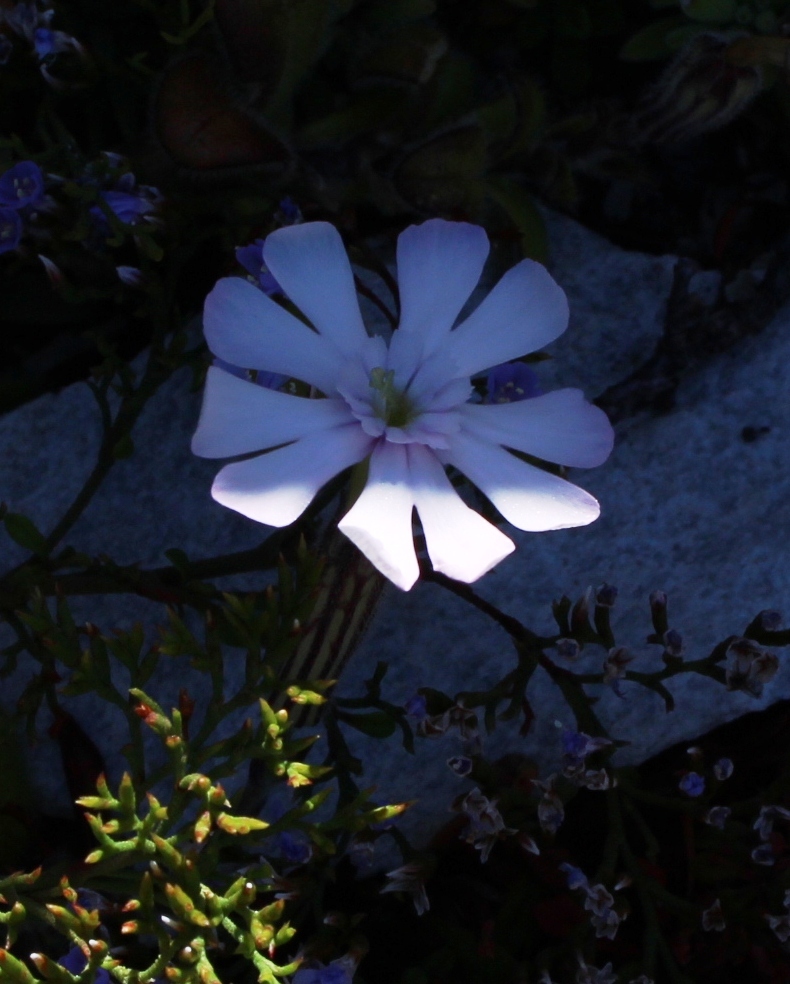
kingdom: Plantae
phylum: Tracheophyta
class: Magnoliopsida
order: Caryophyllales
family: Caryophyllaceae
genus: Silene
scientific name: Silene undulata
